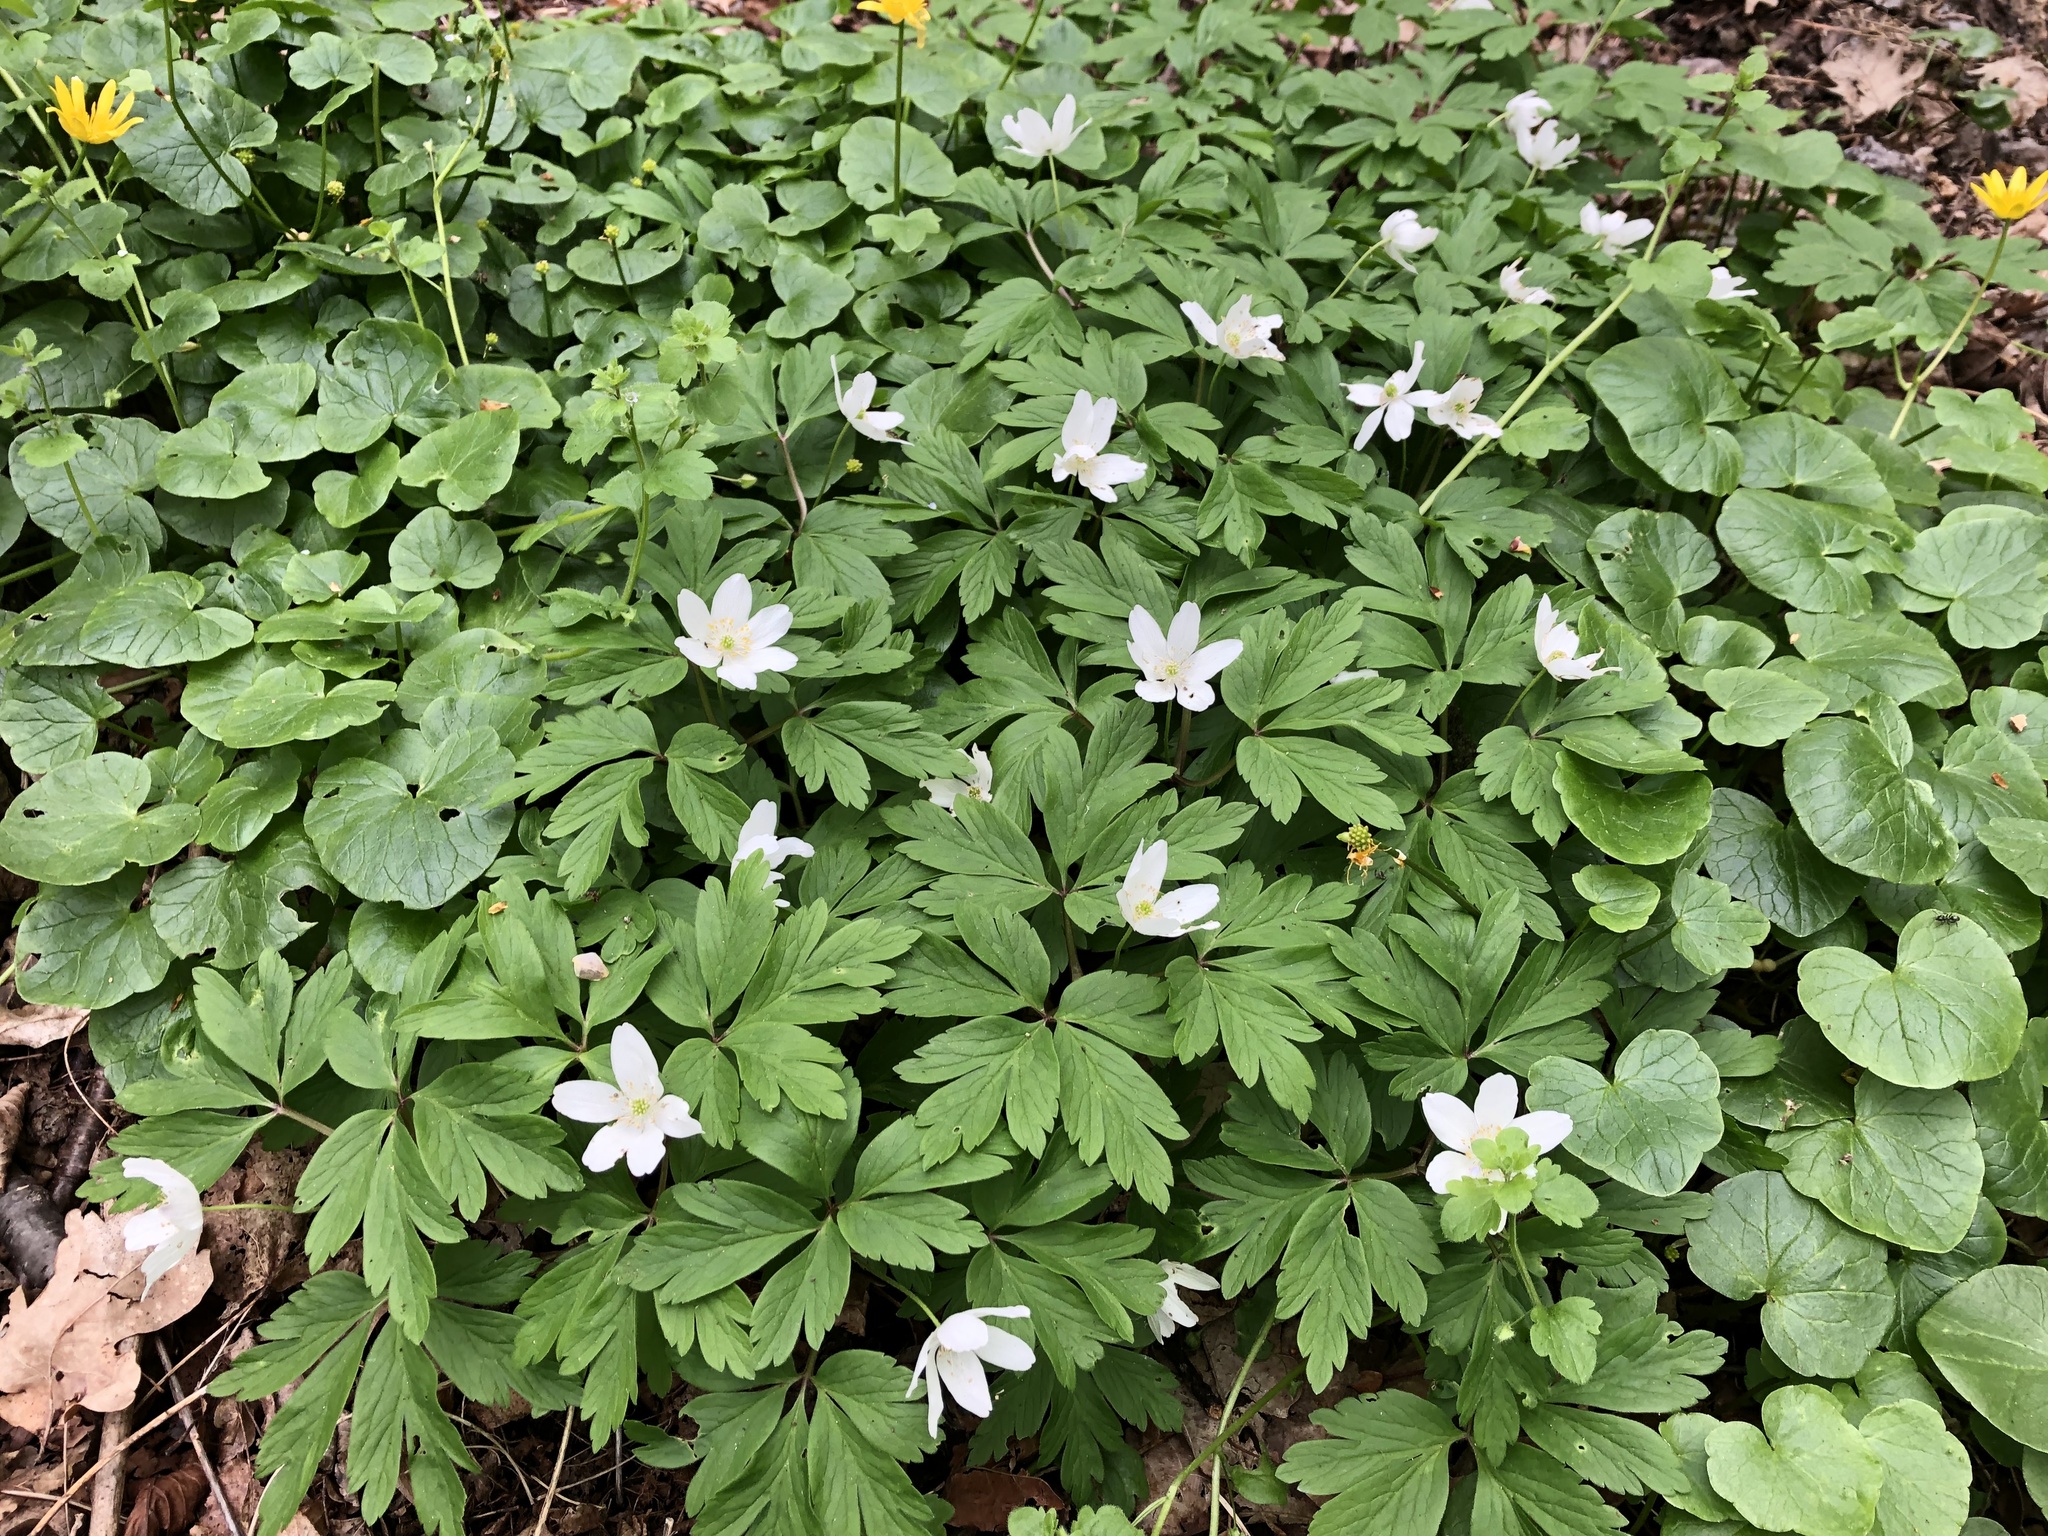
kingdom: Plantae
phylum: Tracheophyta
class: Magnoliopsida
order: Ranunculales
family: Ranunculaceae
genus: Anemone
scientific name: Anemone nemorosa
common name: Wood anemone
